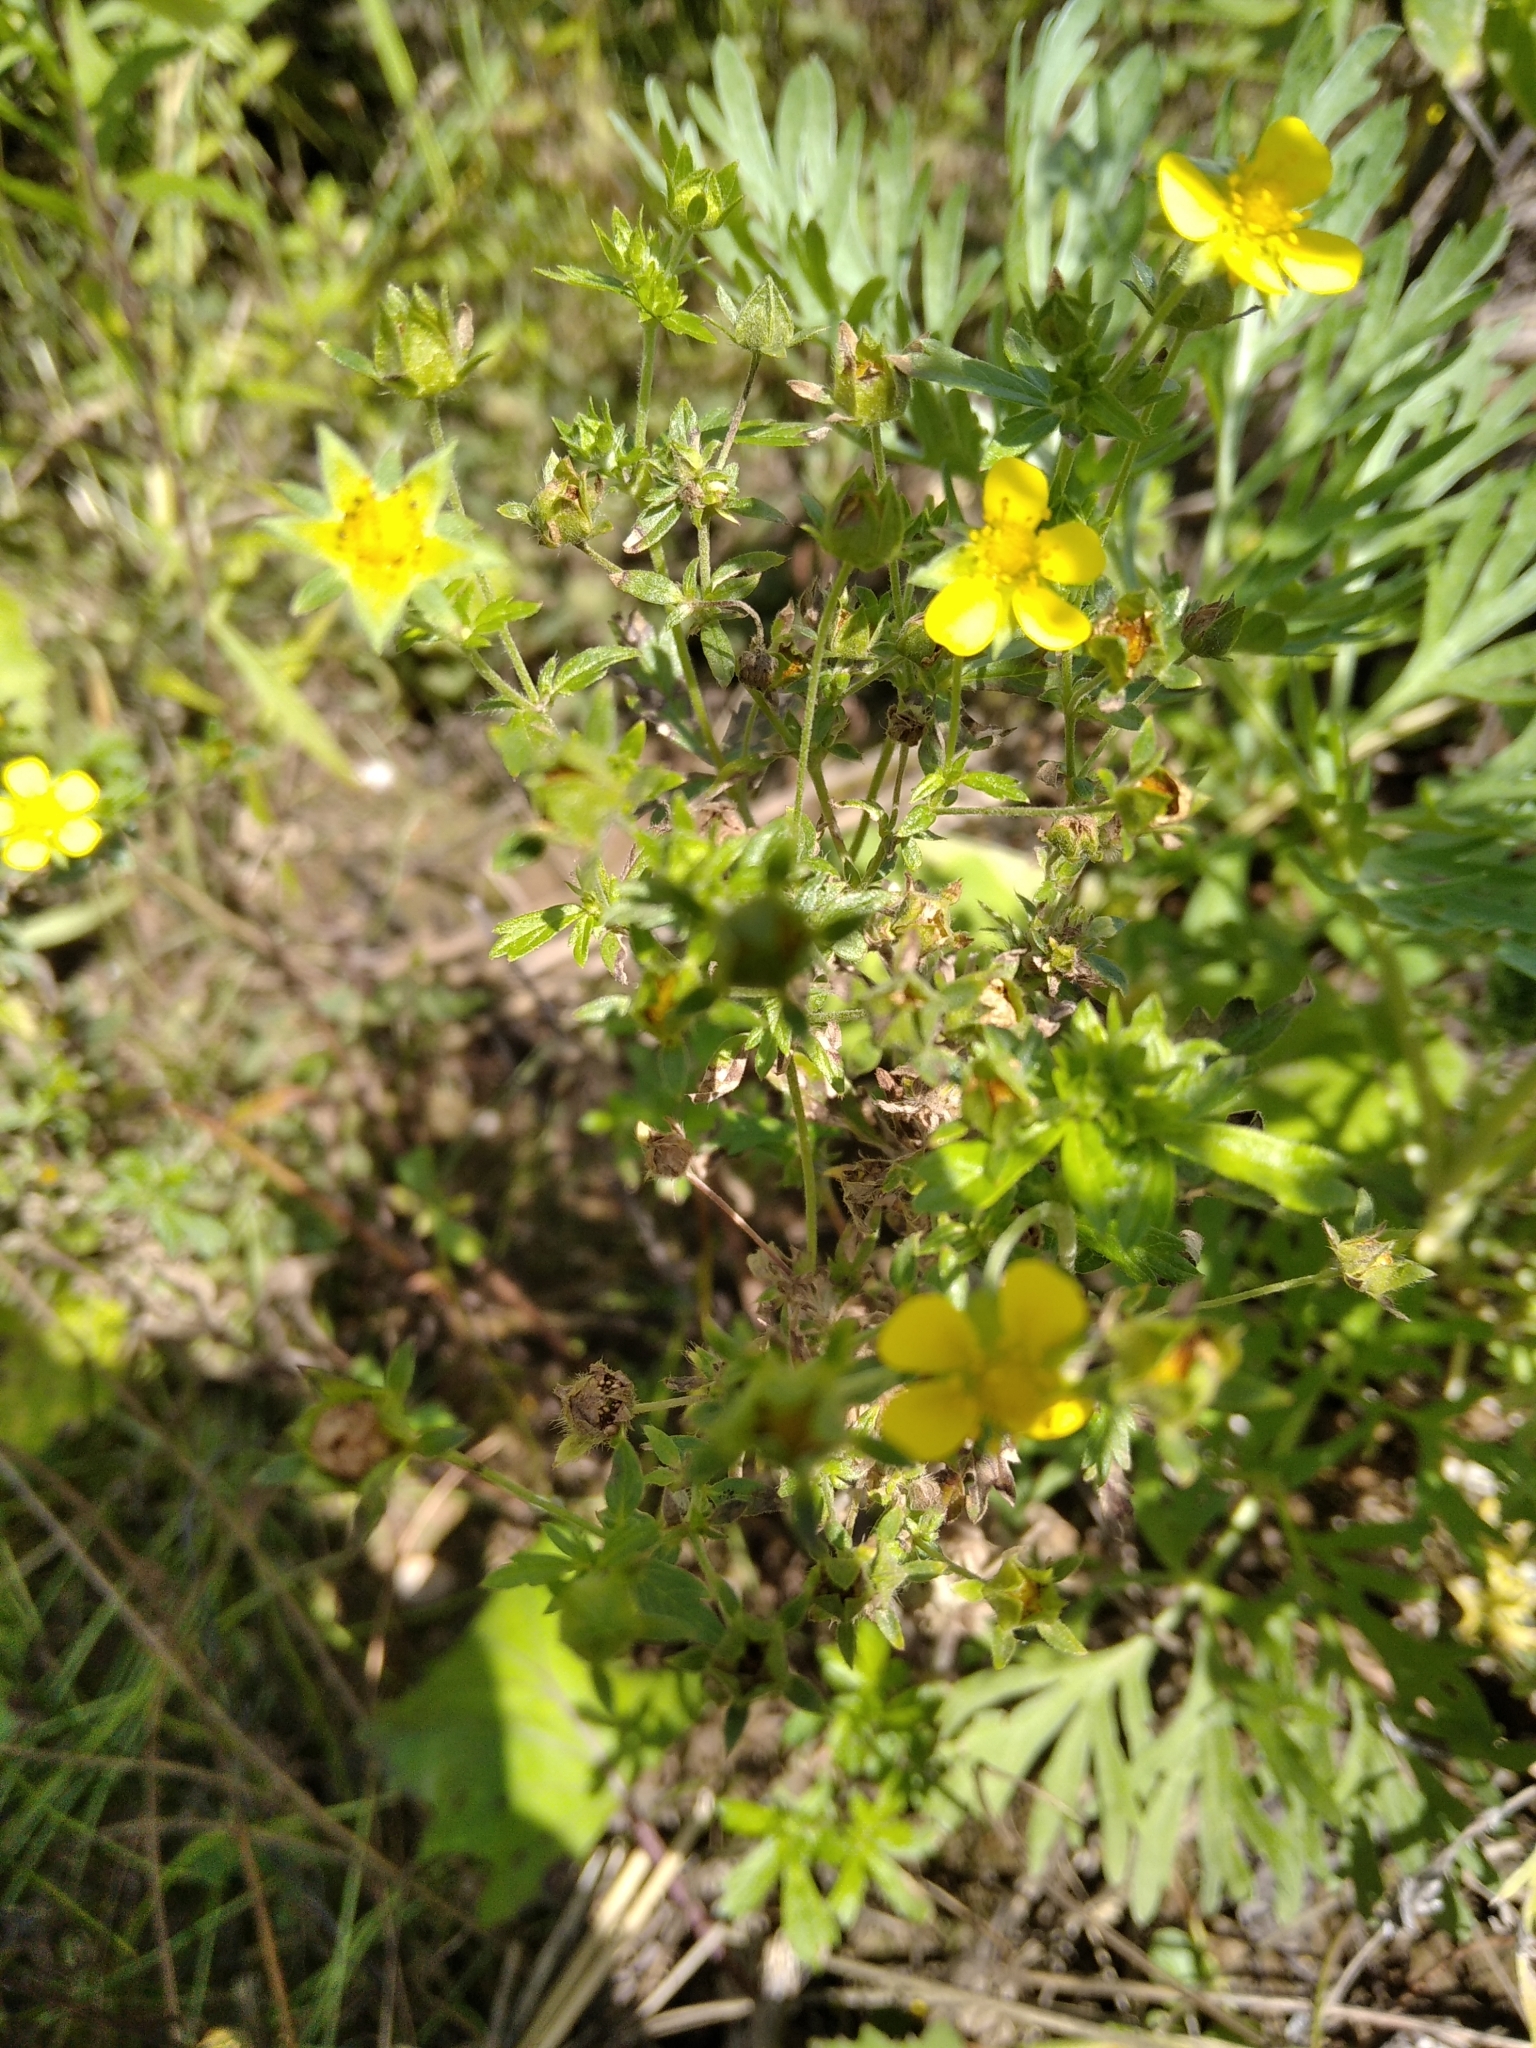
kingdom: Plantae
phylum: Tracheophyta
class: Magnoliopsida
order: Rosales
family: Rosaceae
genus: Potentilla
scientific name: Potentilla argentea
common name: Hoary cinquefoil
